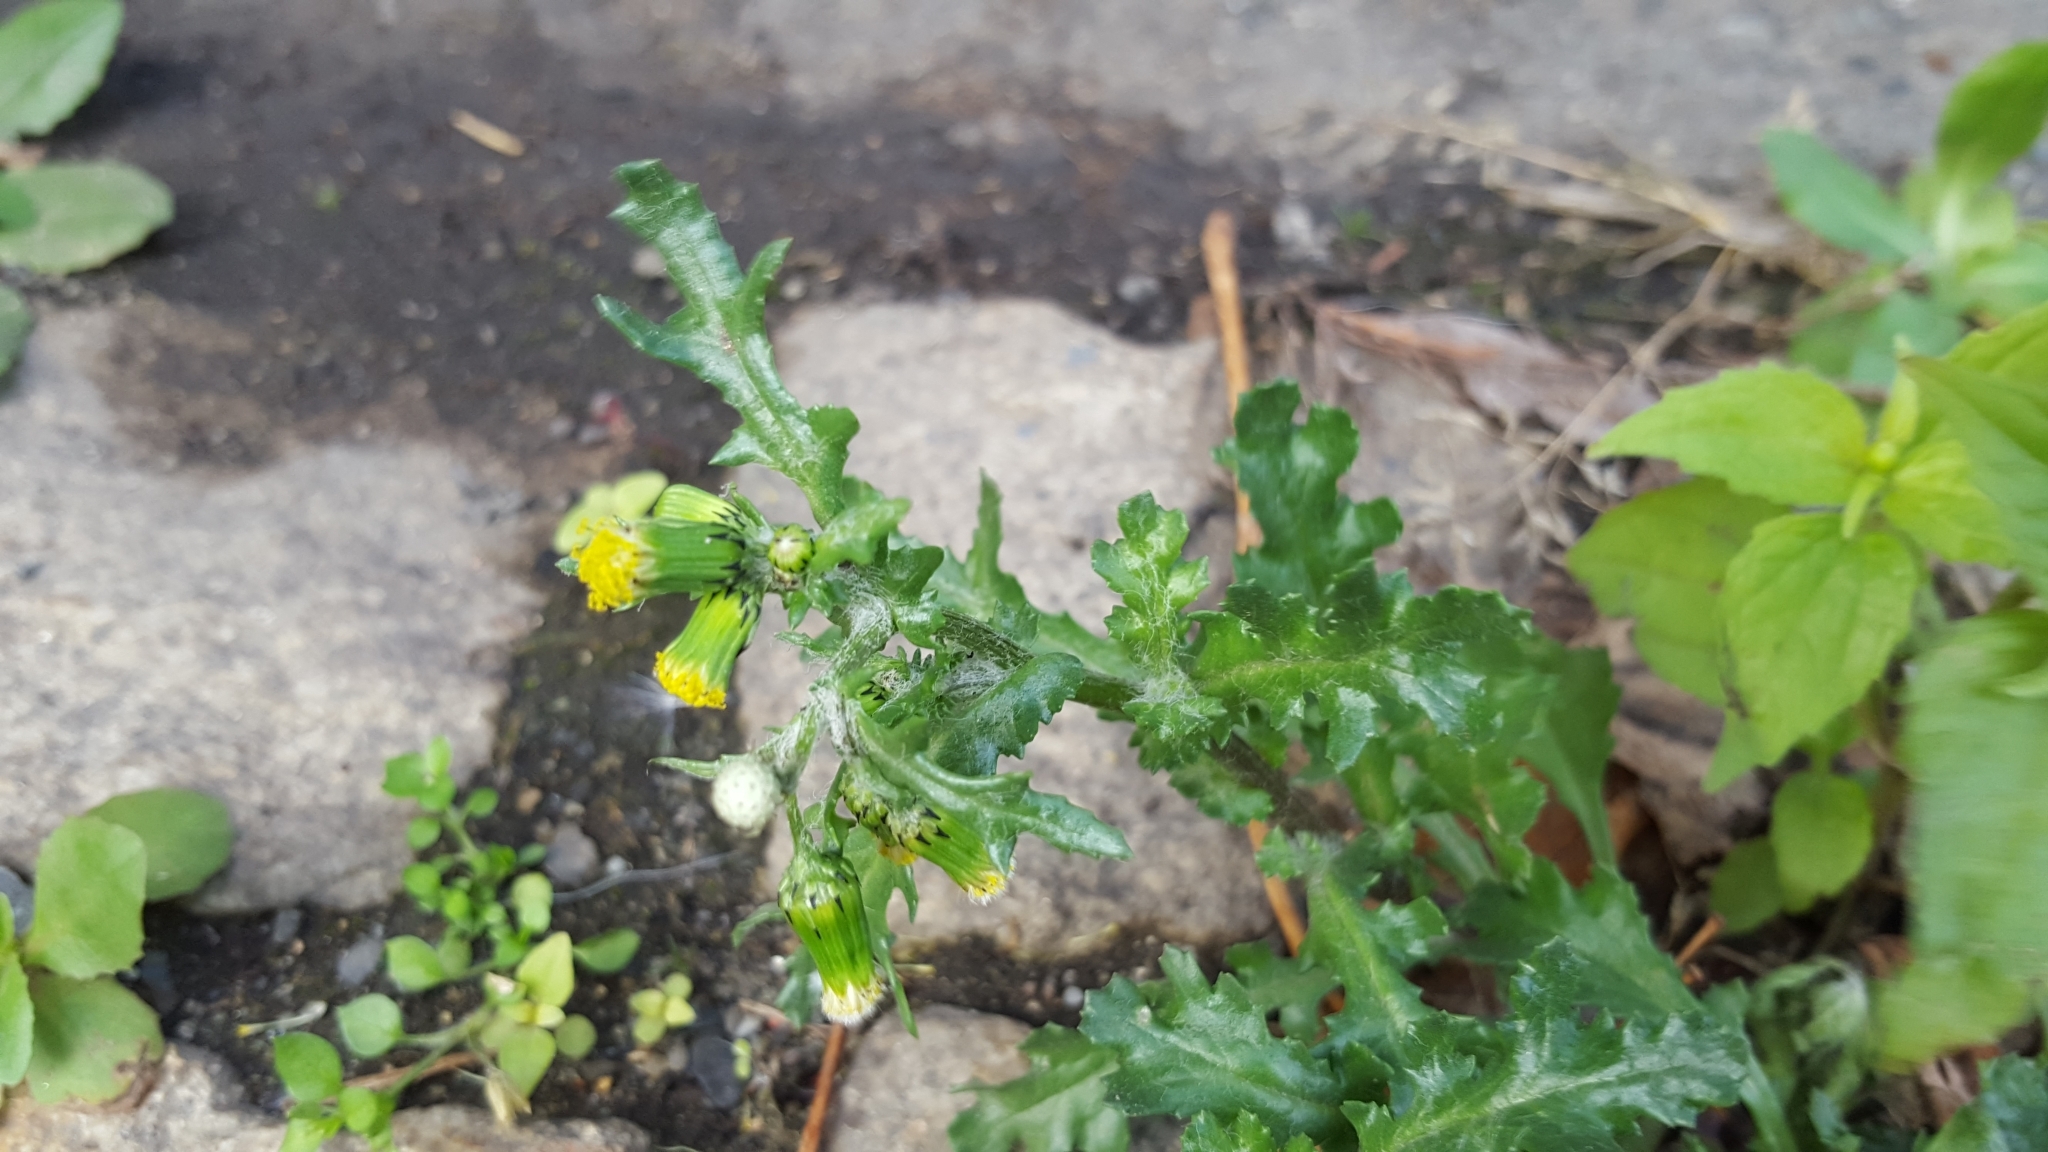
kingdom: Plantae
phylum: Tracheophyta
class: Magnoliopsida
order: Asterales
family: Asteraceae
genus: Senecio
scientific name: Senecio vulgaris
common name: Old-man-in-the-spring
